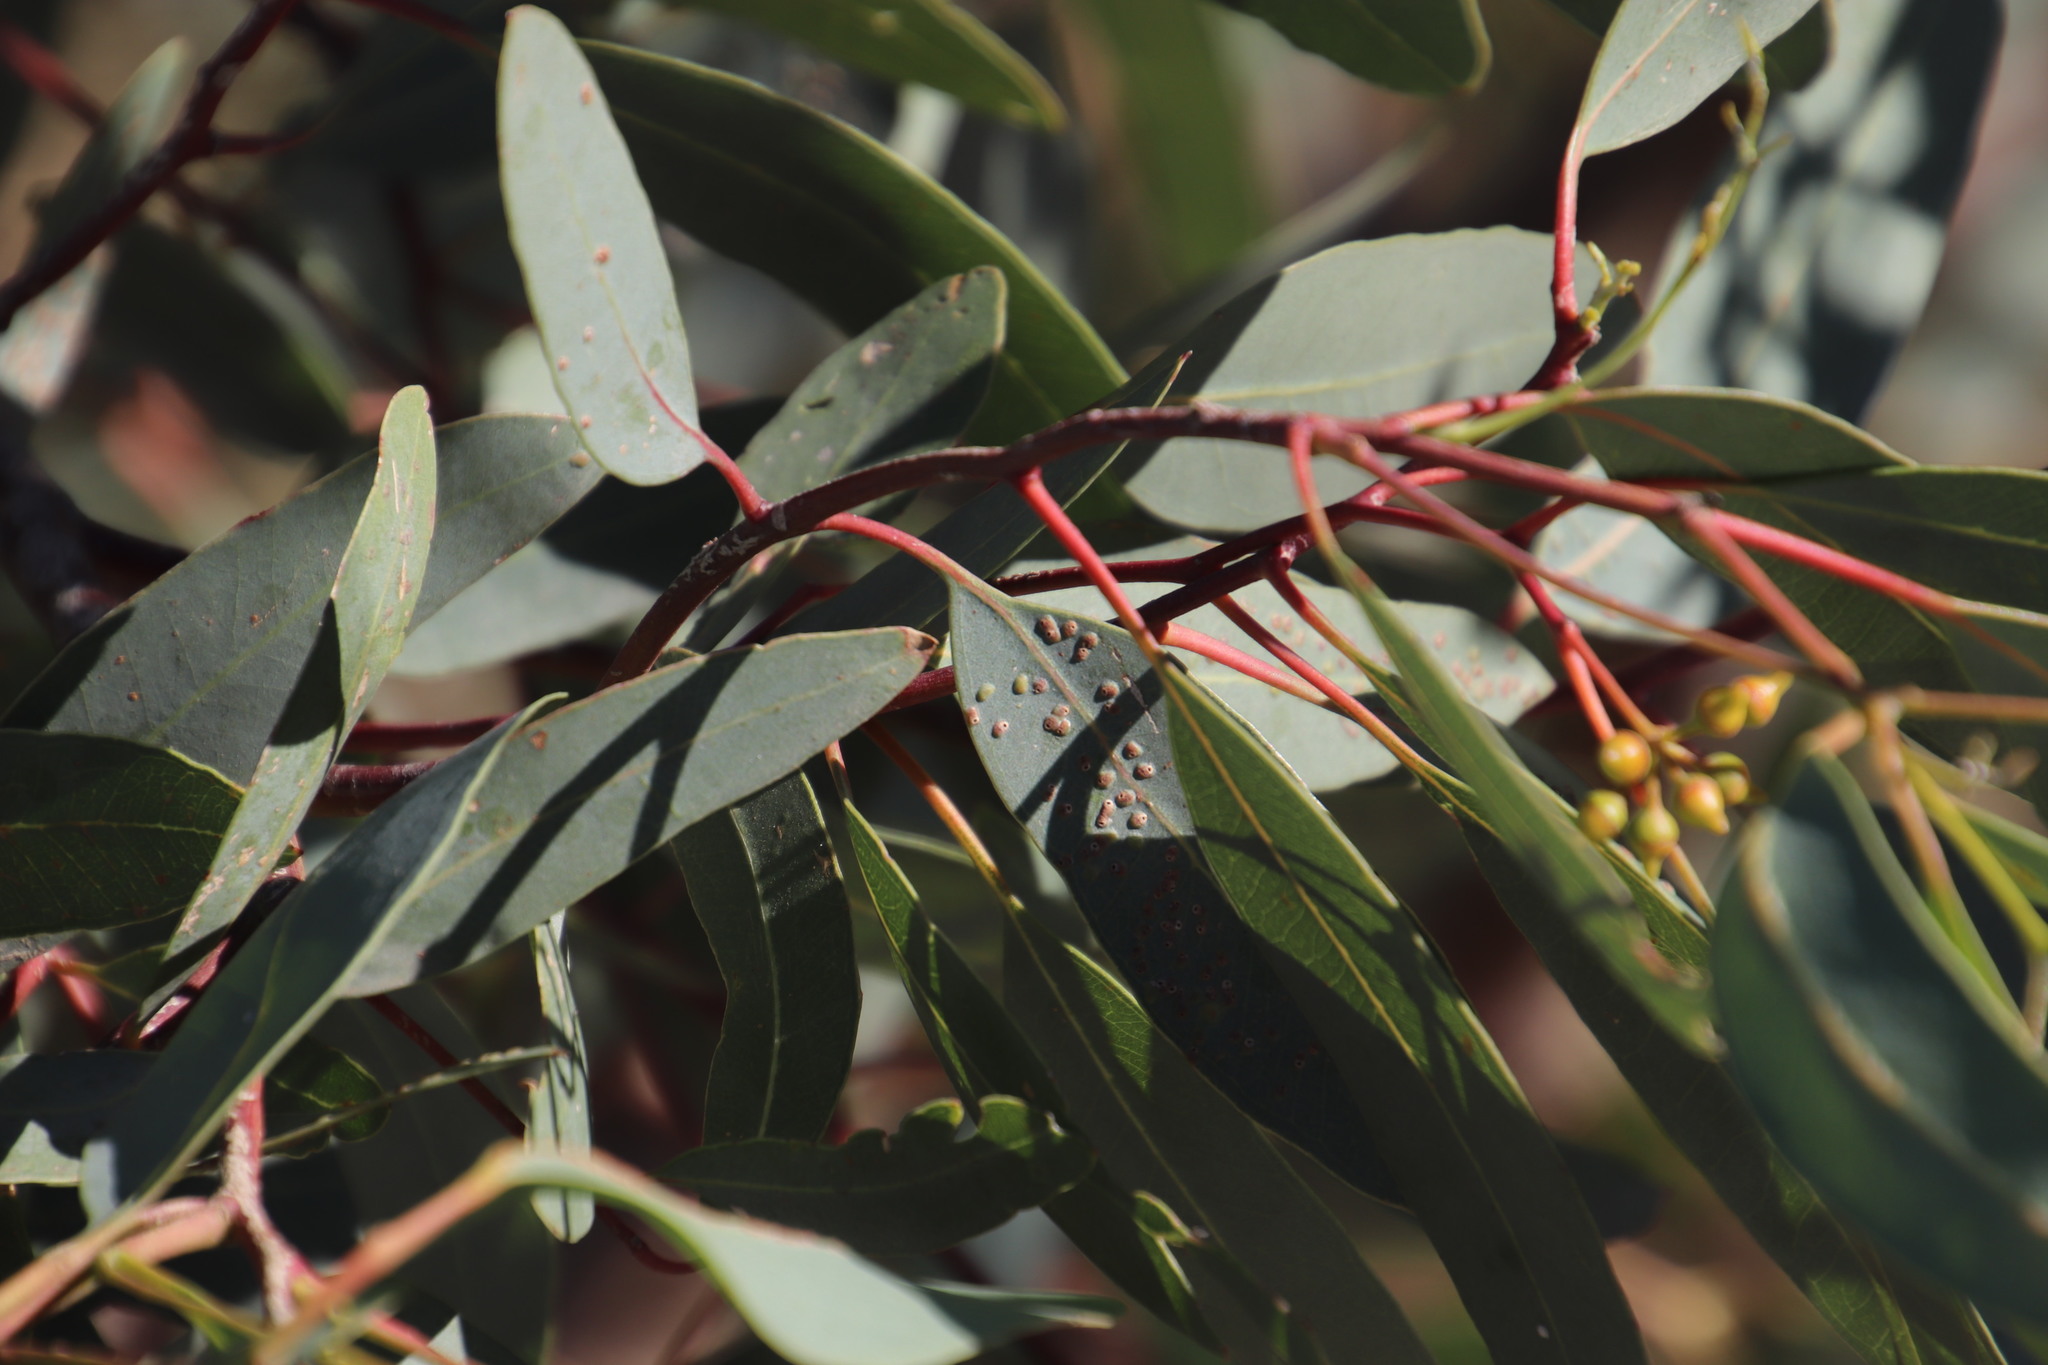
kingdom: Plantae
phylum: Tracheophyta
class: Magnoliopsida
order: Myrtales
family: Myrtaceae
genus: Eucalyptus
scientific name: Eucalyptus camaldulensis
